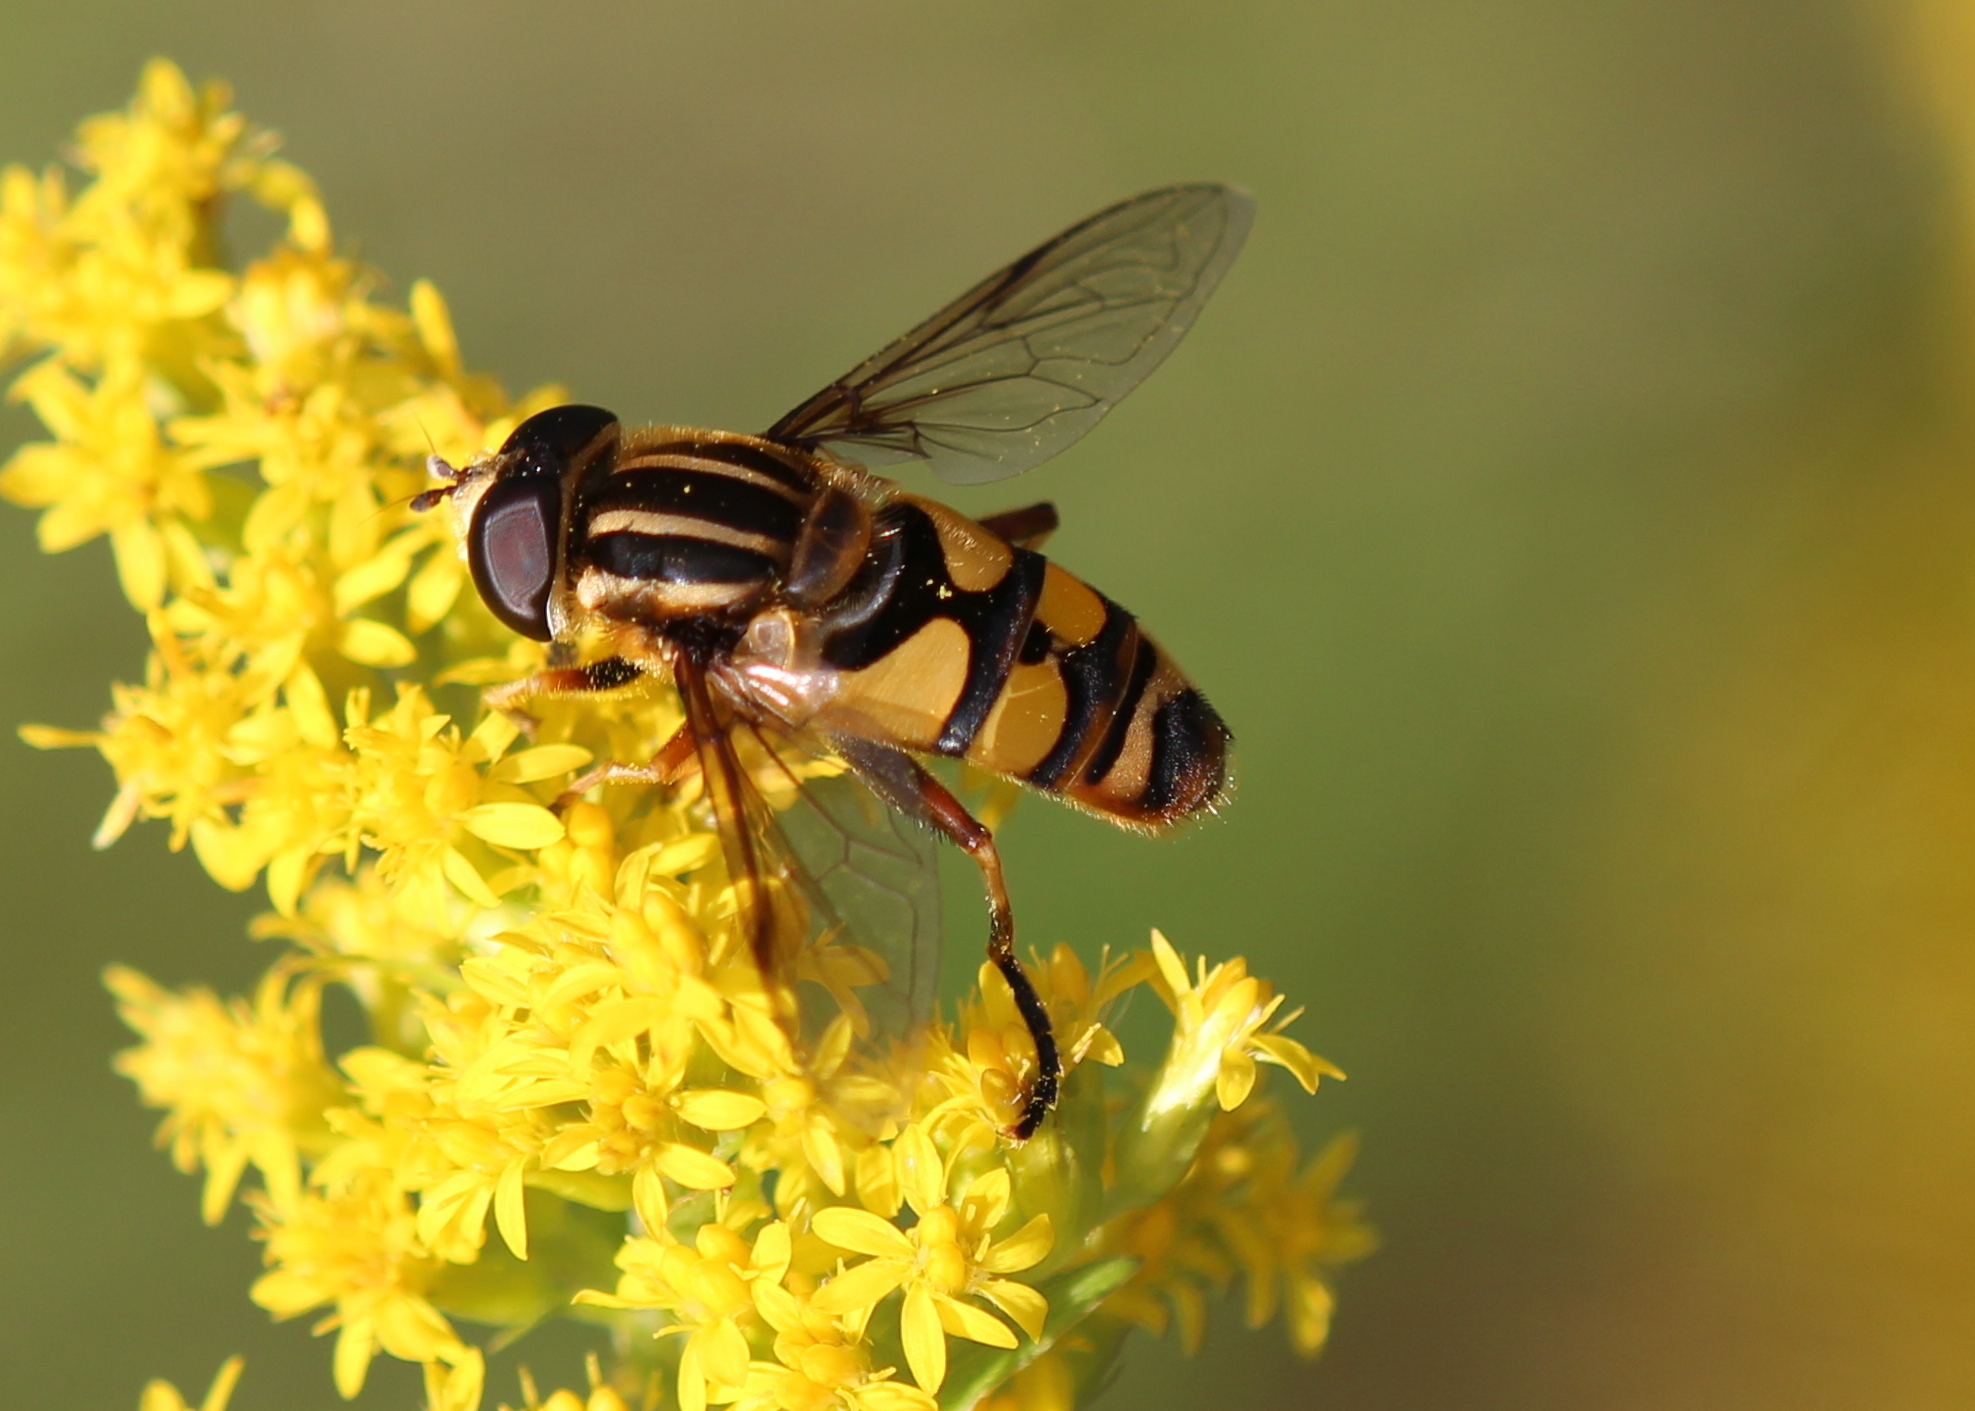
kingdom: Animalia
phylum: Arthropoda
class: Insecta
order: Diptera
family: Syrphidae
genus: Helophilus
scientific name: Helophilus fasciatus
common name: Narrow-headed marsh fly
